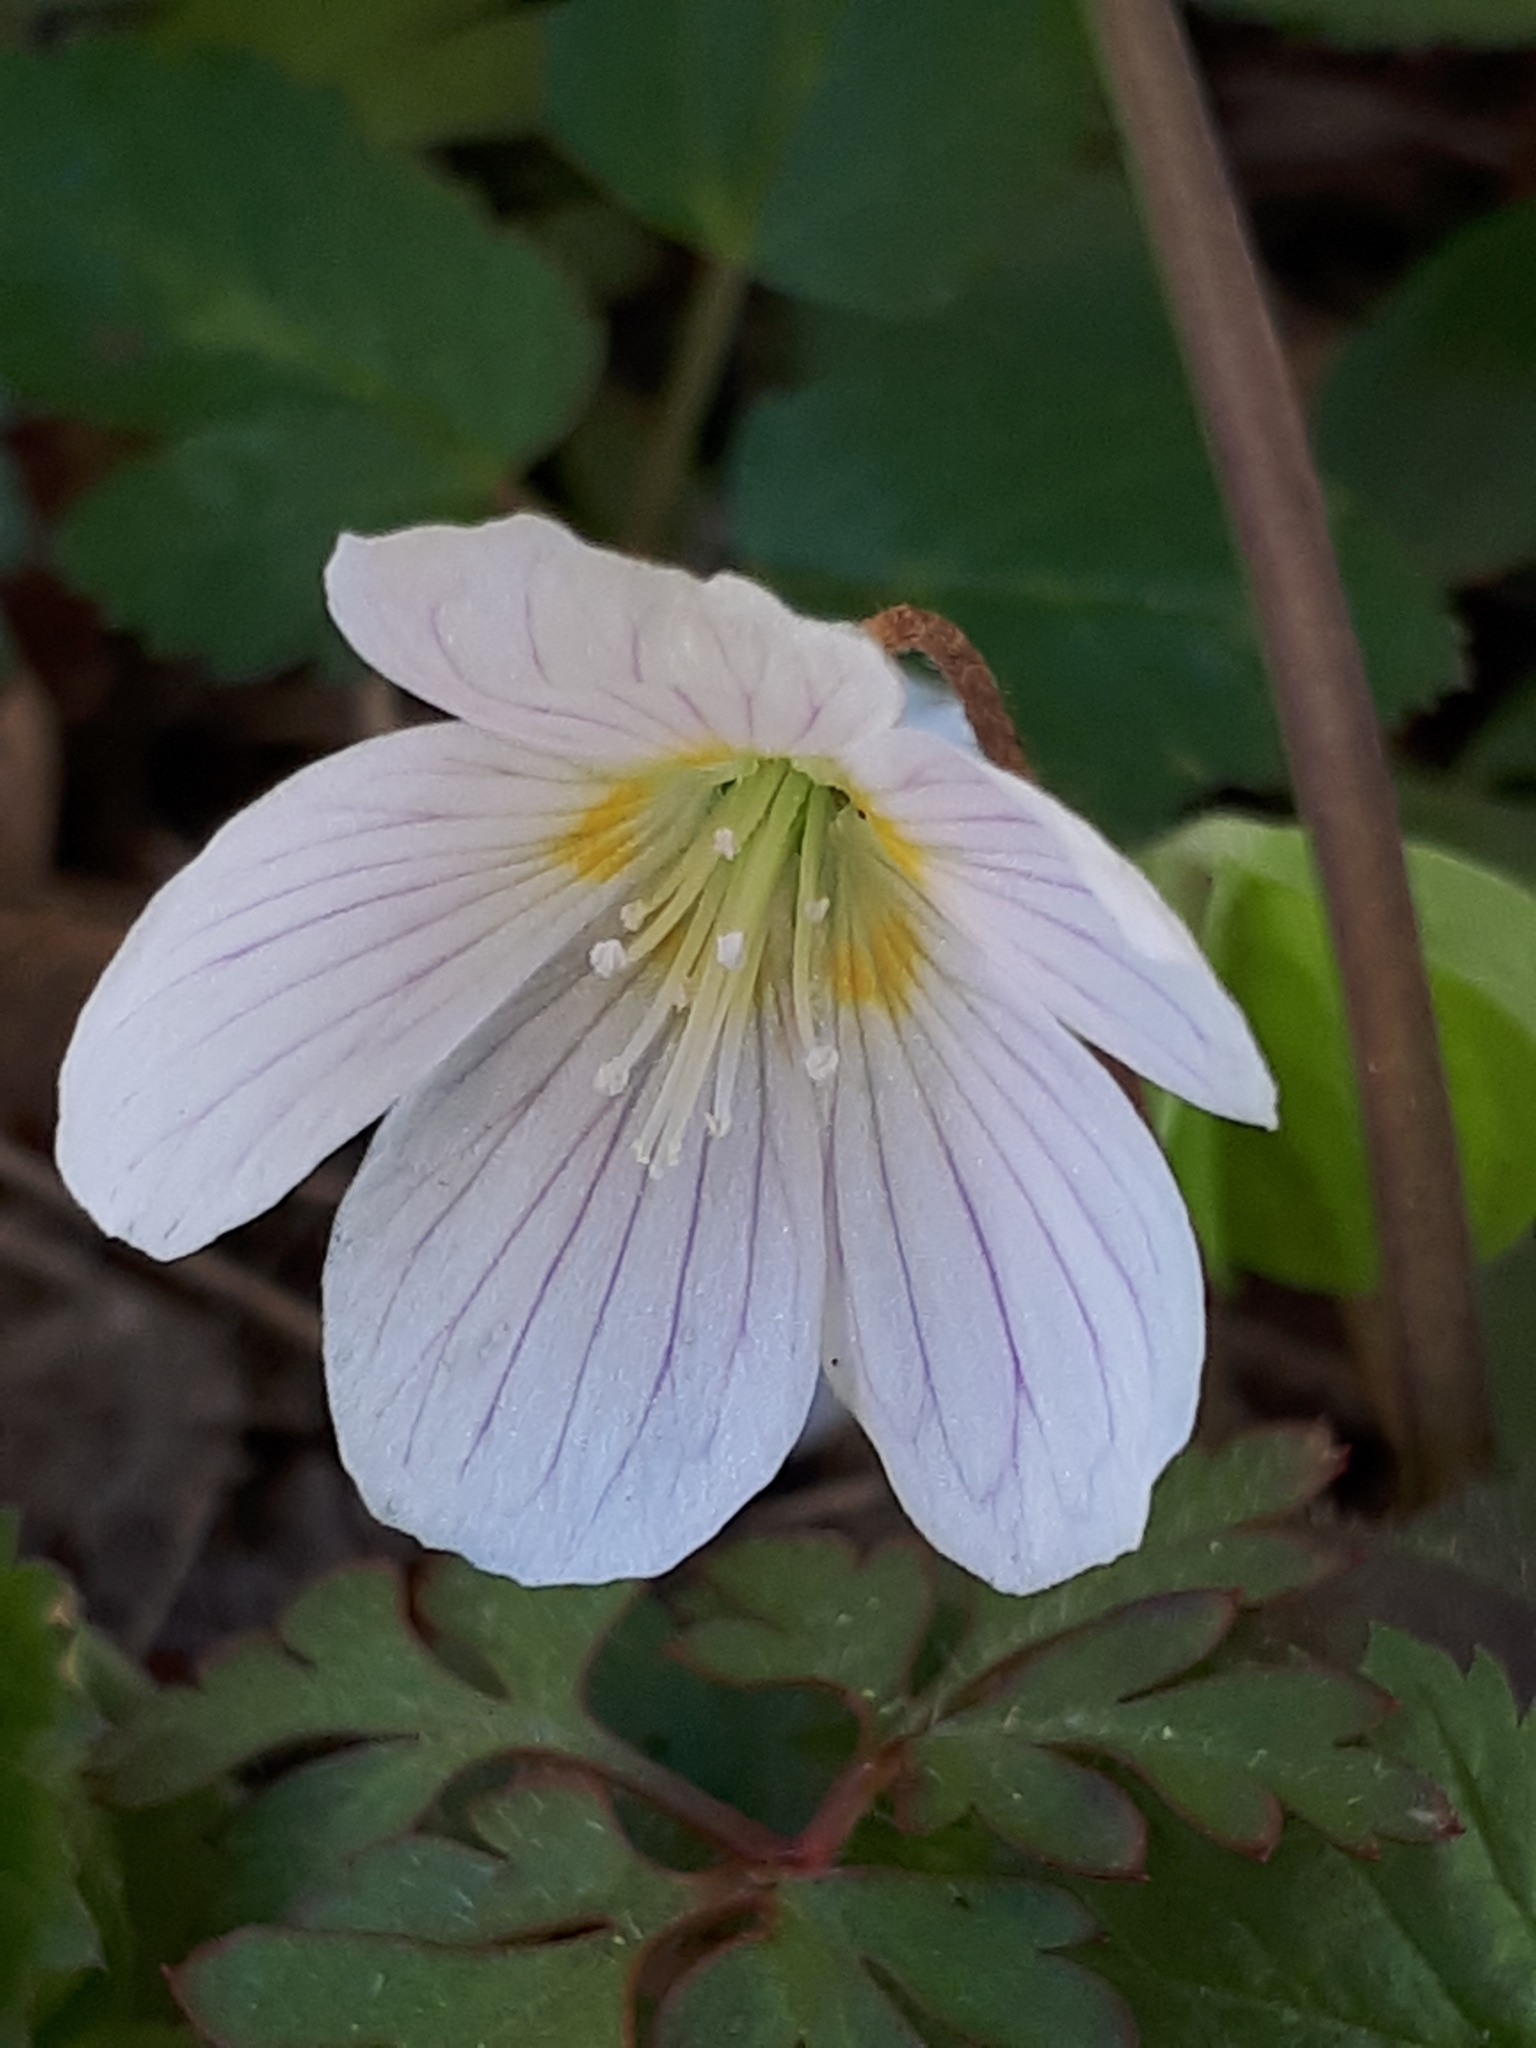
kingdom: Plantae
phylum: Tracheophyta
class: Magnoliopsida
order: Oxalidales
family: Oxalidaceae
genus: Oxalis
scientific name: Oxalis acetosella
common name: Wood-sorrel
